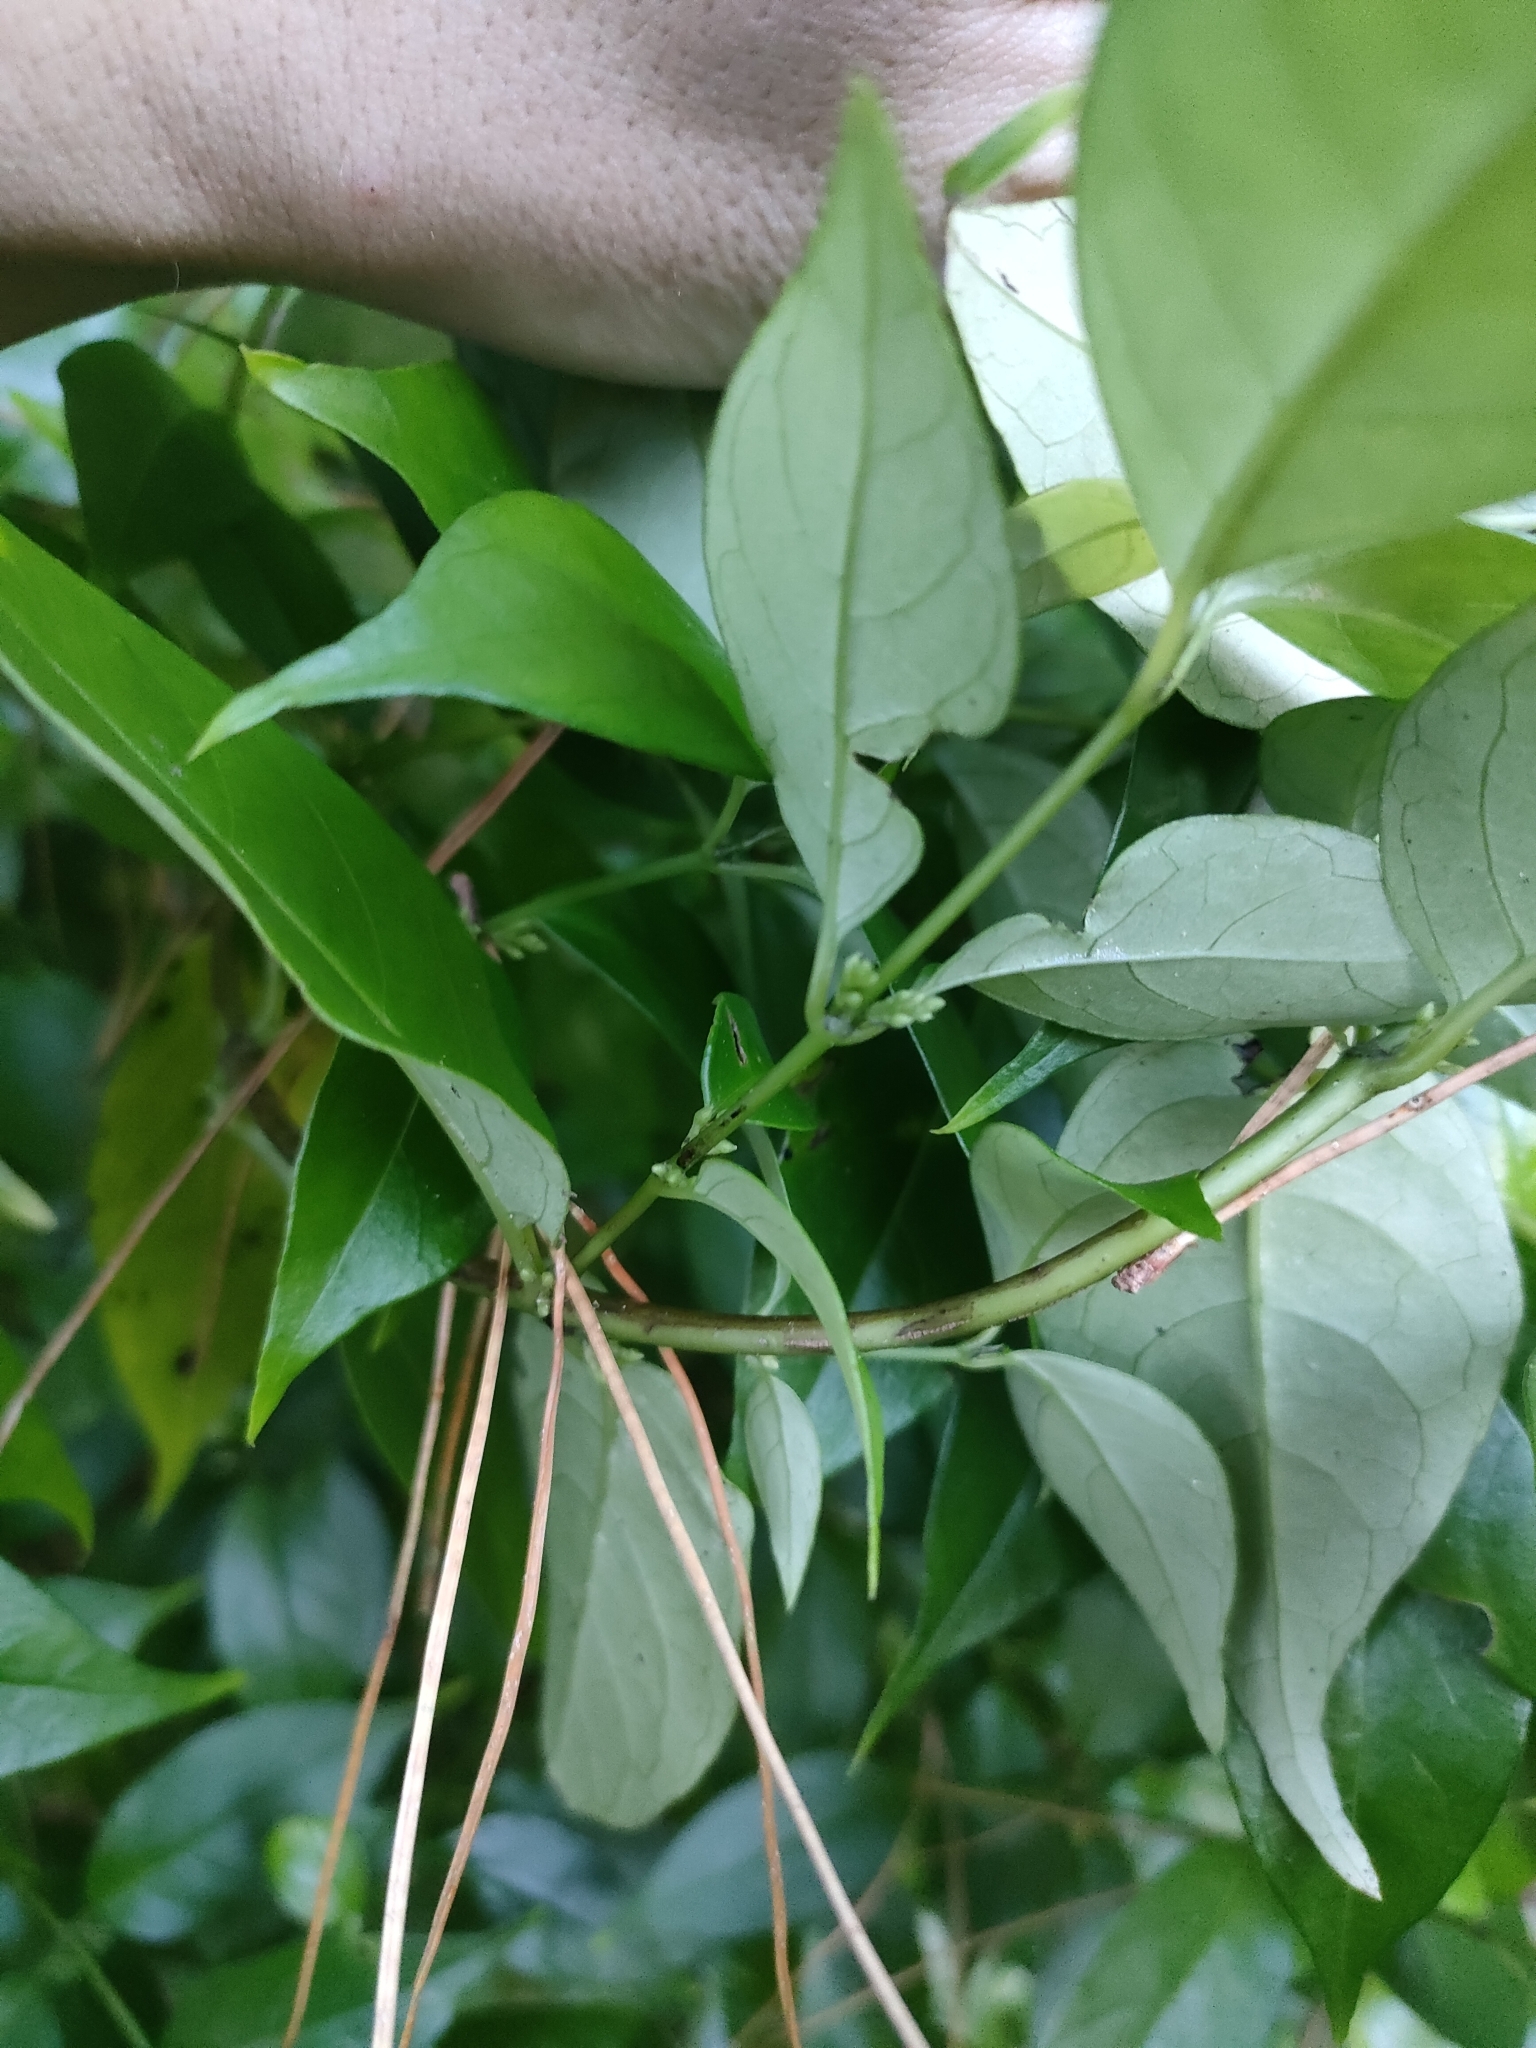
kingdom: Plantae
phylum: Tracheophyta
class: Magnoliopsida
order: Gentianales
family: Loganiaceae
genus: Geniostoma
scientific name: Geniostoma ligustrifolium
